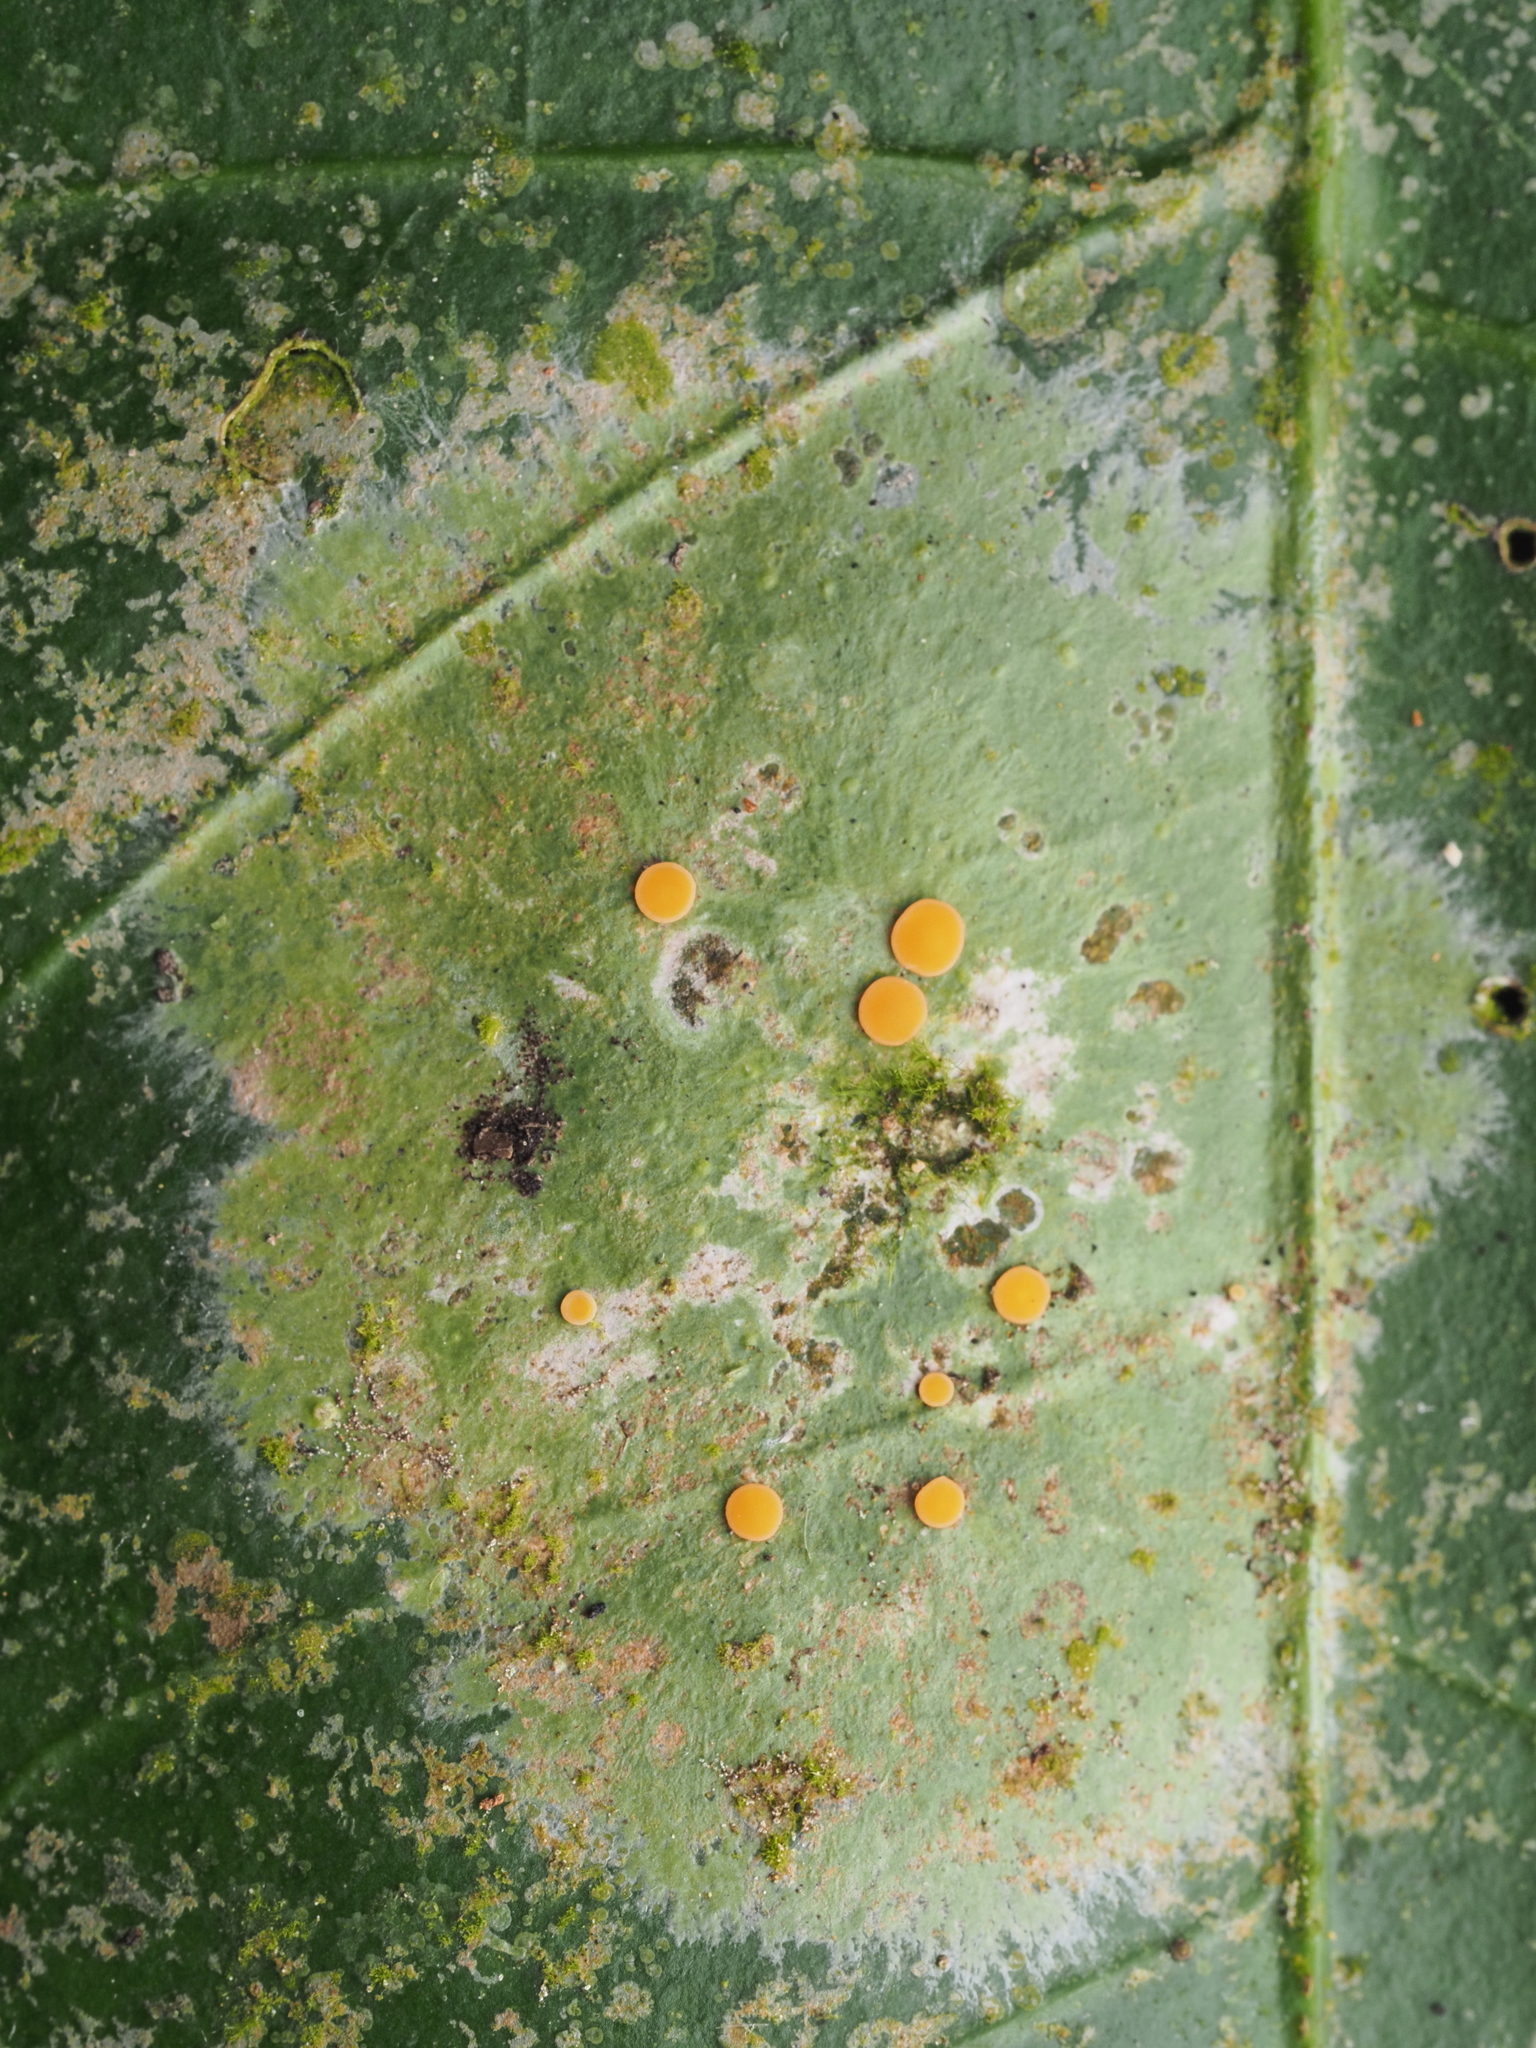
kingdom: Fungi
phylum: Ascomycota
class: Lecanoromycetes
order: Ostropales
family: Coenogoniaceae
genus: Coenogonium
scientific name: Coenogonium fallaciosum
